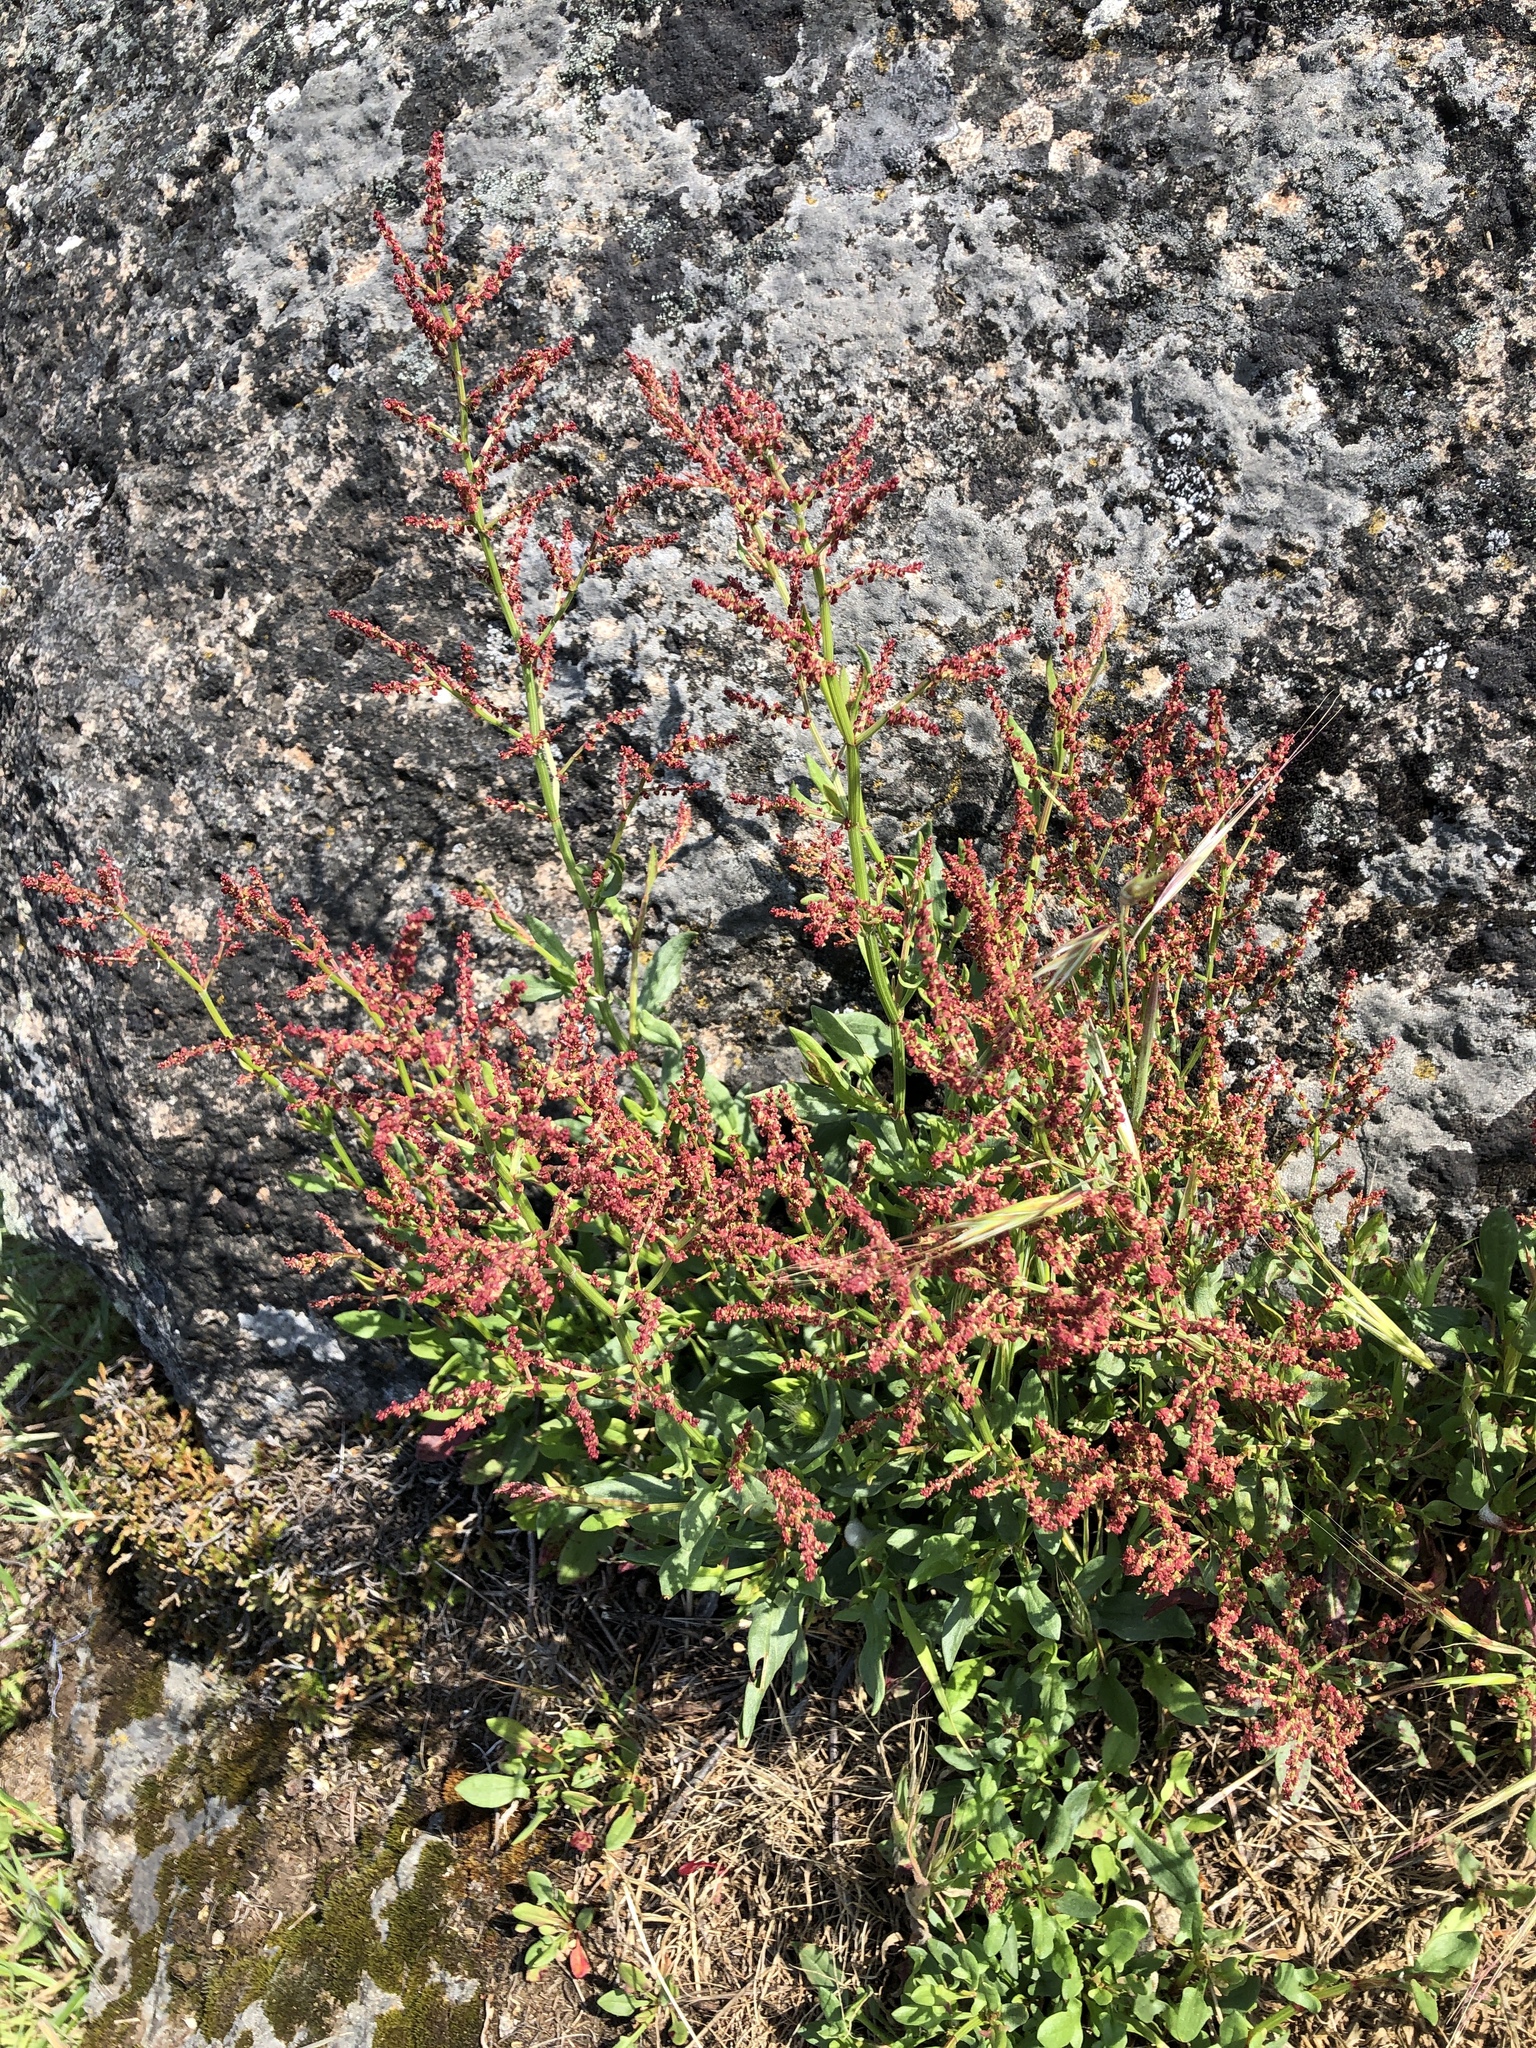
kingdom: Plantae
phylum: Tracheophyta
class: Magnoliopsida
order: Caryophyllales
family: Polygonaceae
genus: Rumex
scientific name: Rumex acetosella
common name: Common sheep sorrel
